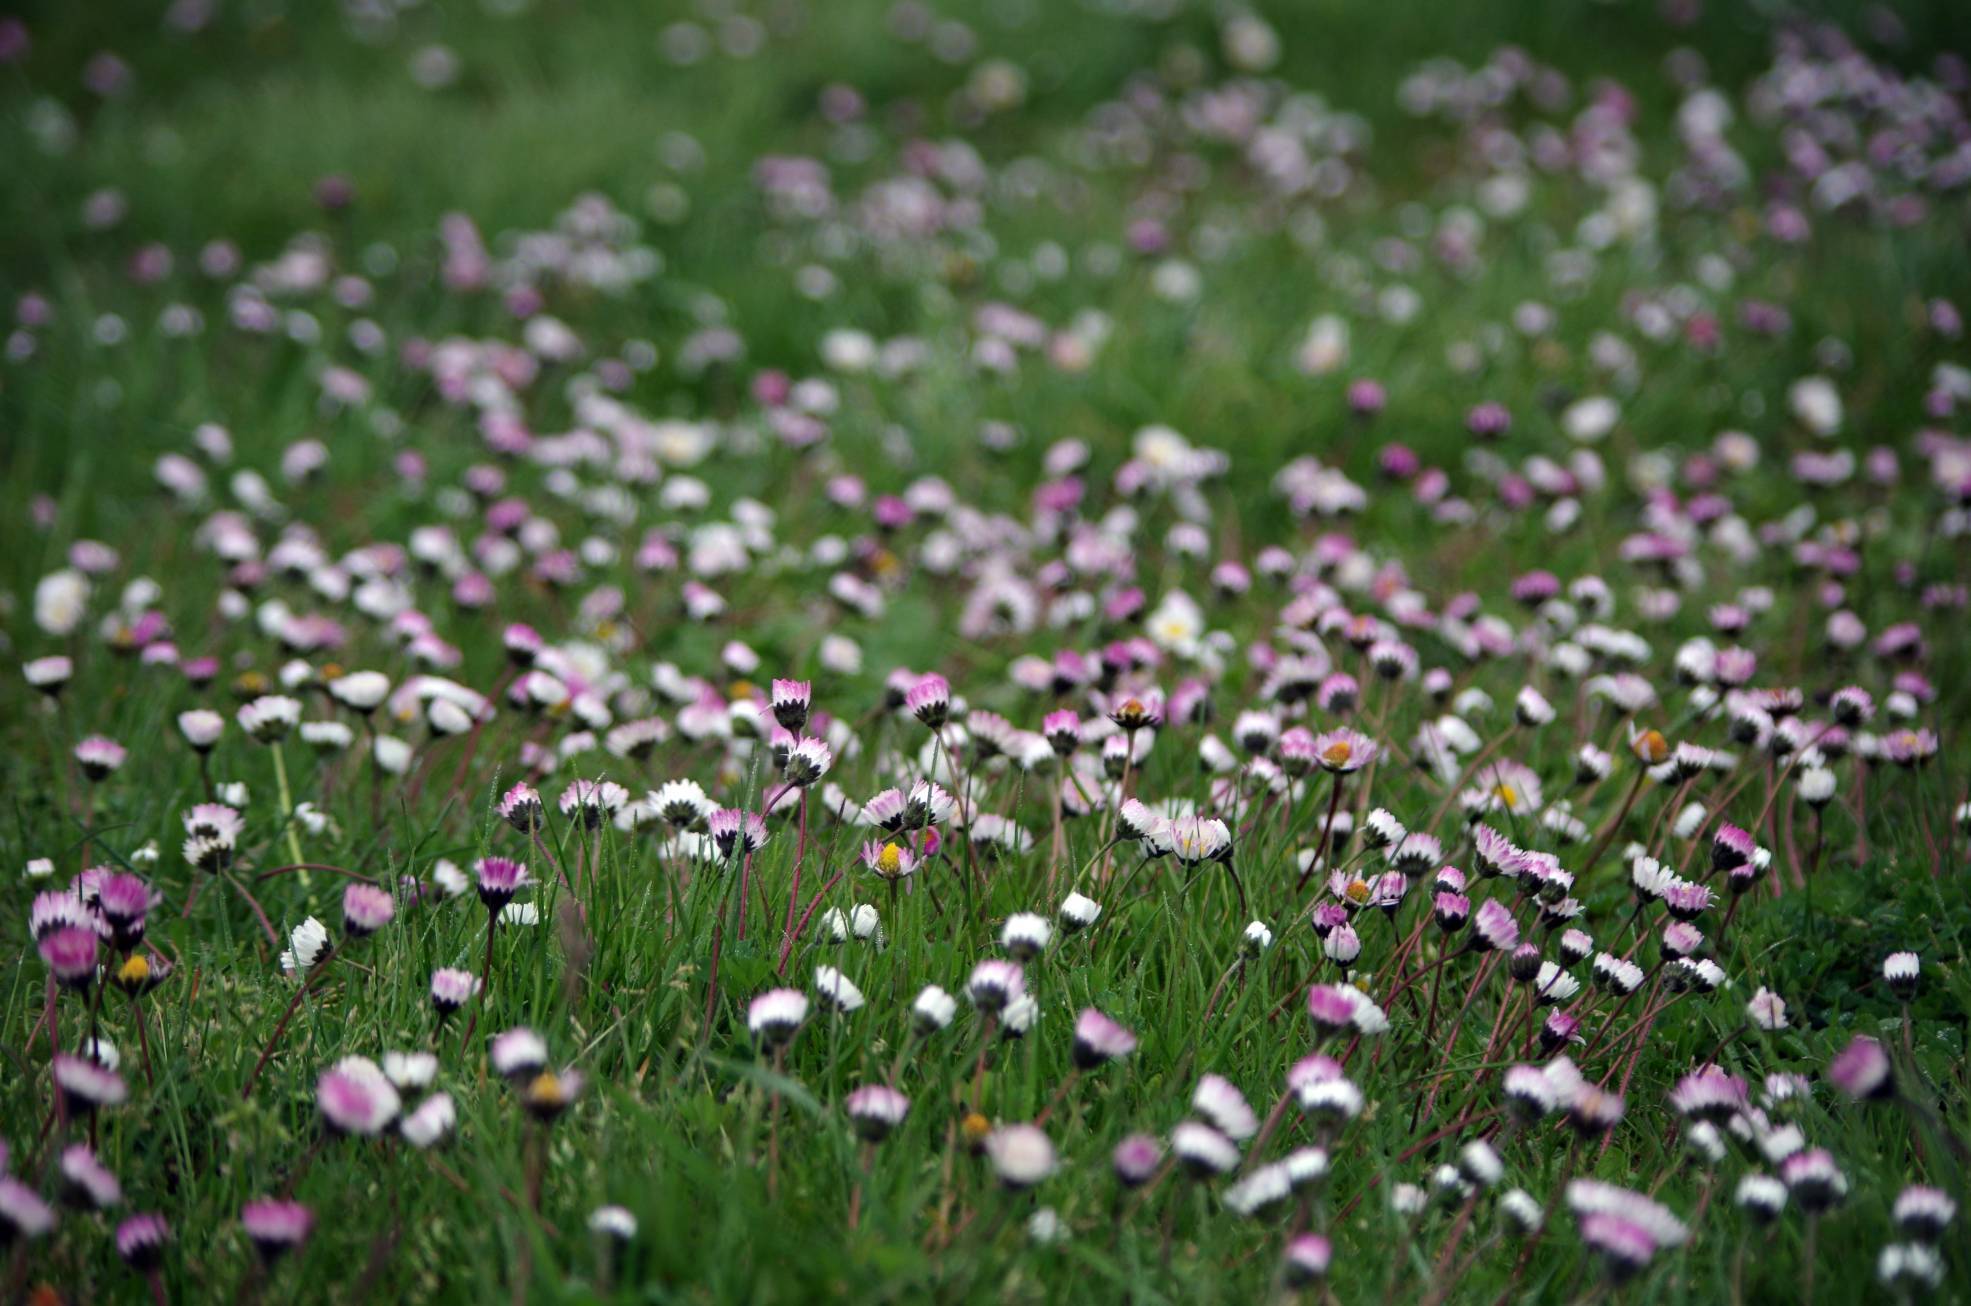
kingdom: Plantae
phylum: Tracheophyta
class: Magnoliopsida
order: Asterales
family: Asteraceae
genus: Bellis
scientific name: Bellis perennis
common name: Lawndaisy
